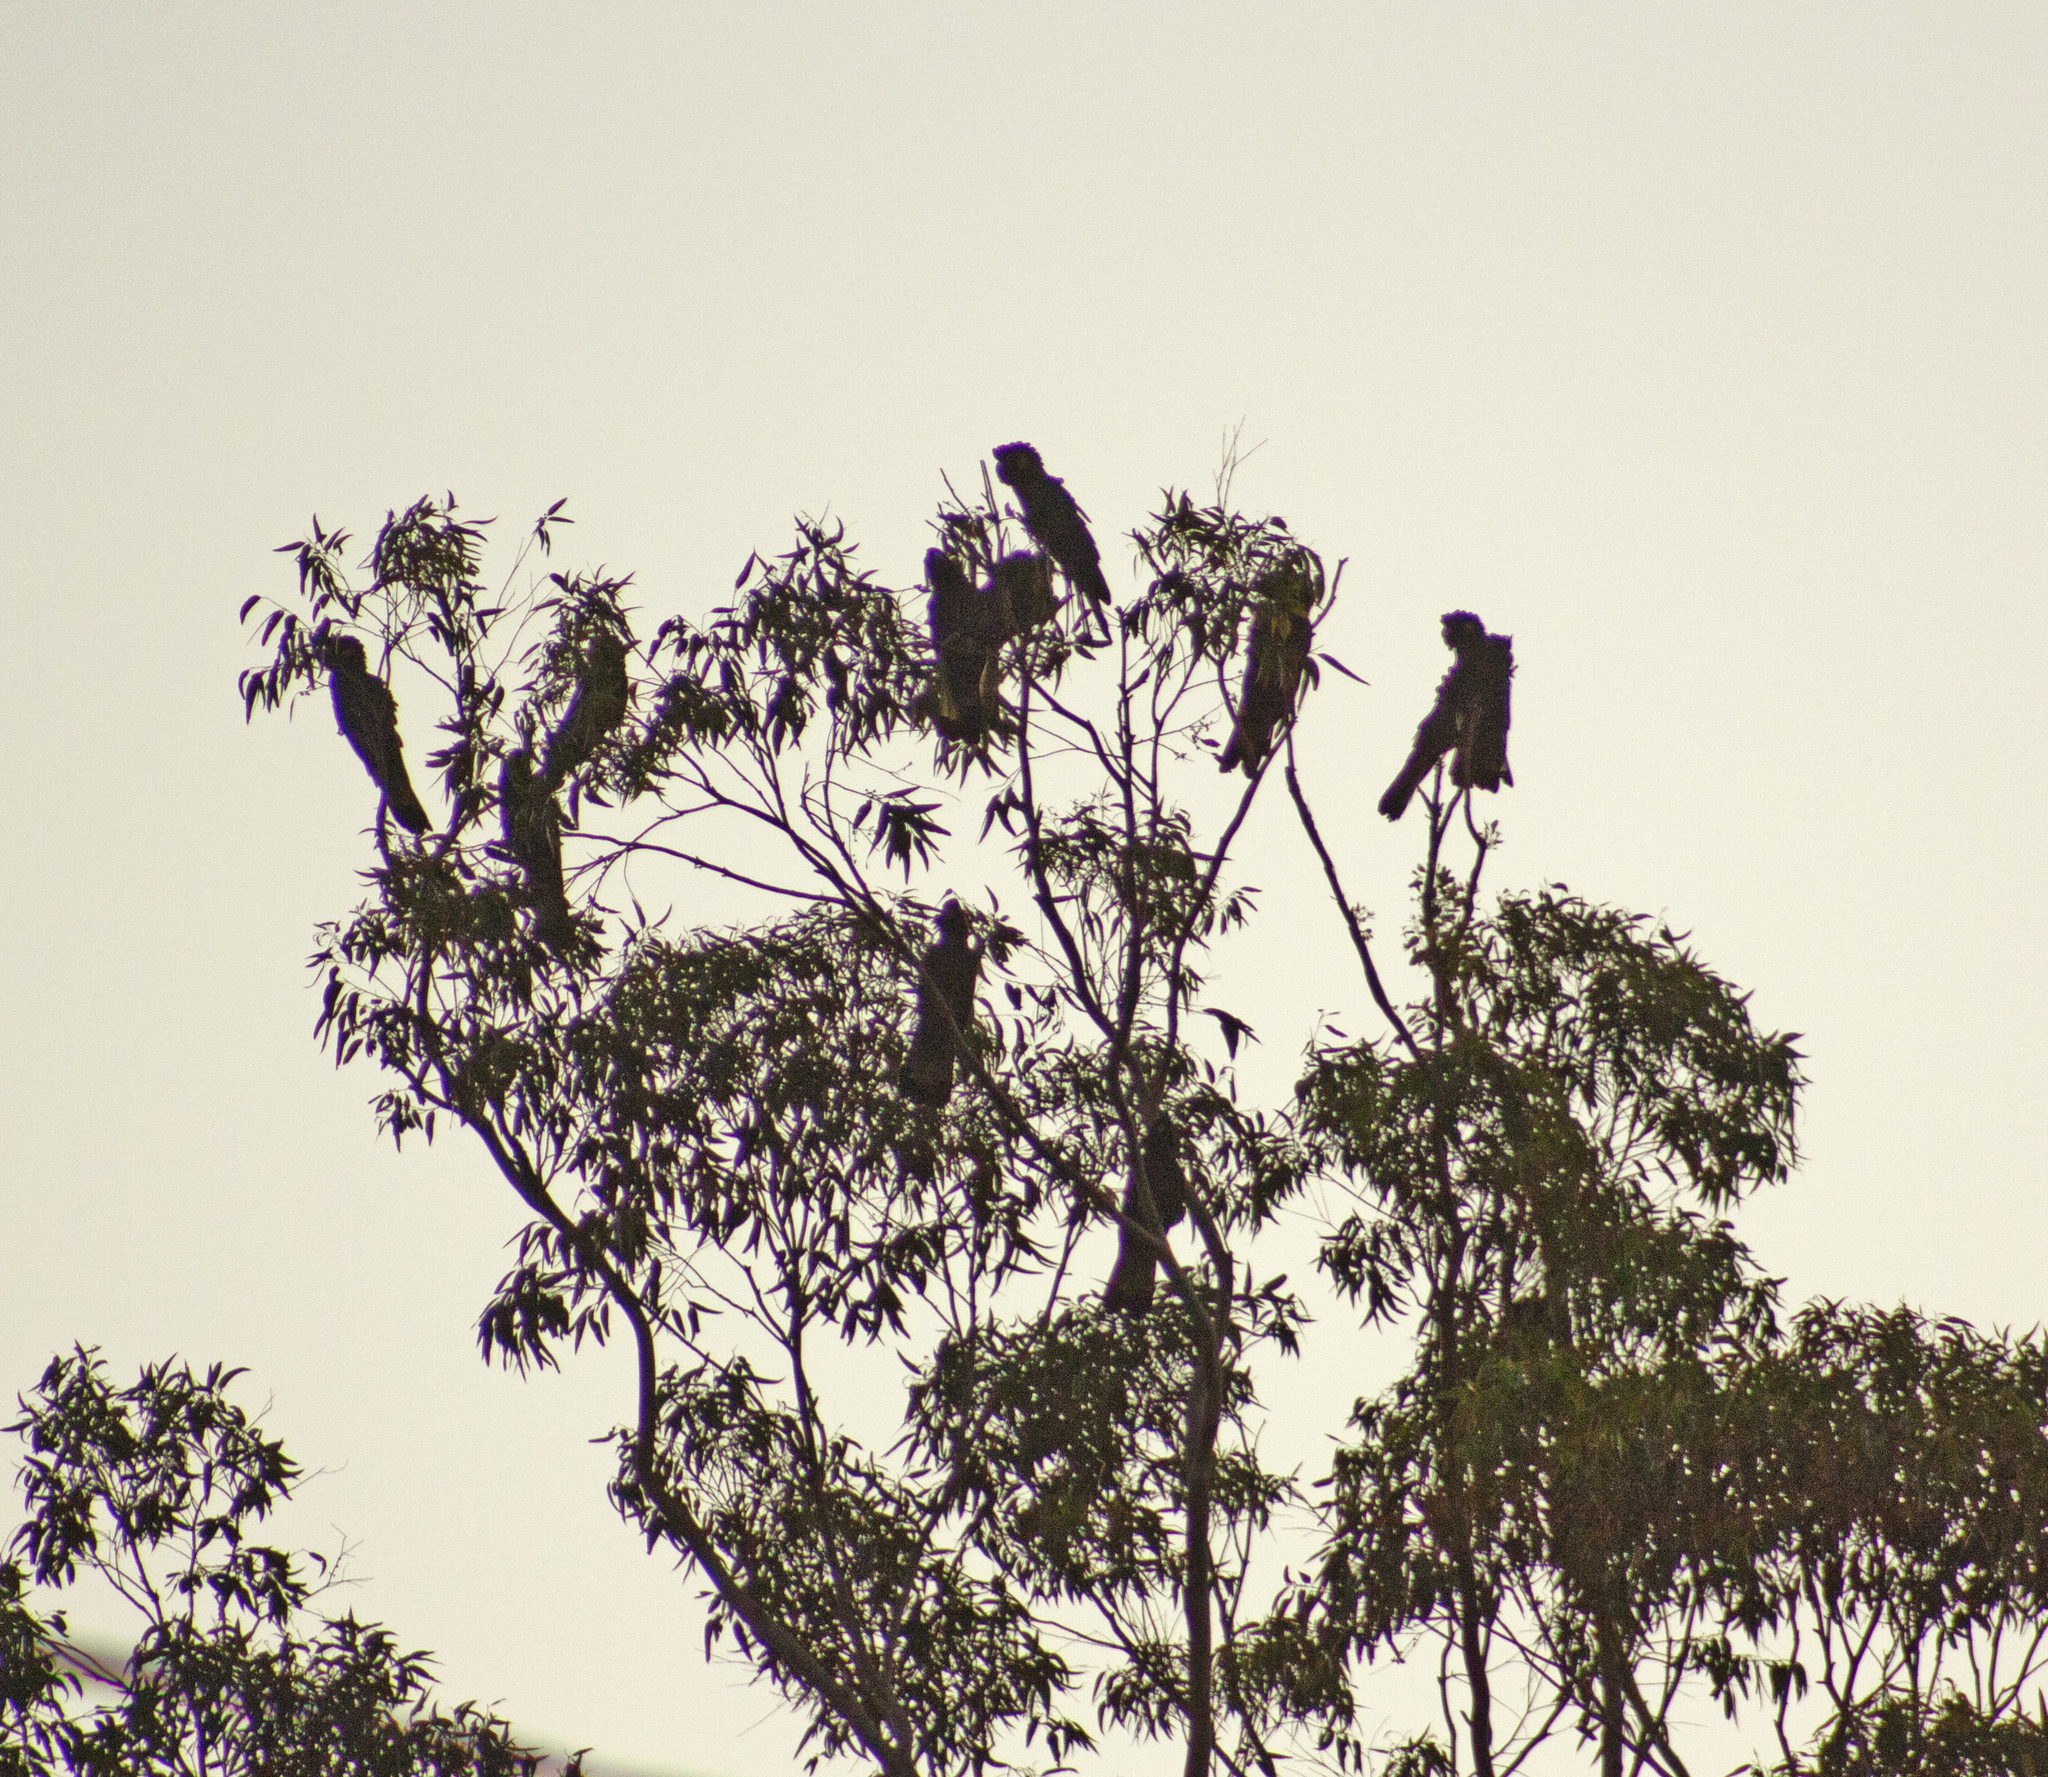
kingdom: Animalia
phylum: Chordata
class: Aves
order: Psittaciformes
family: Cacatuidae
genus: Zanda
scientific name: Zanda funerea
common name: Yellow-tailed black-cockatoo
